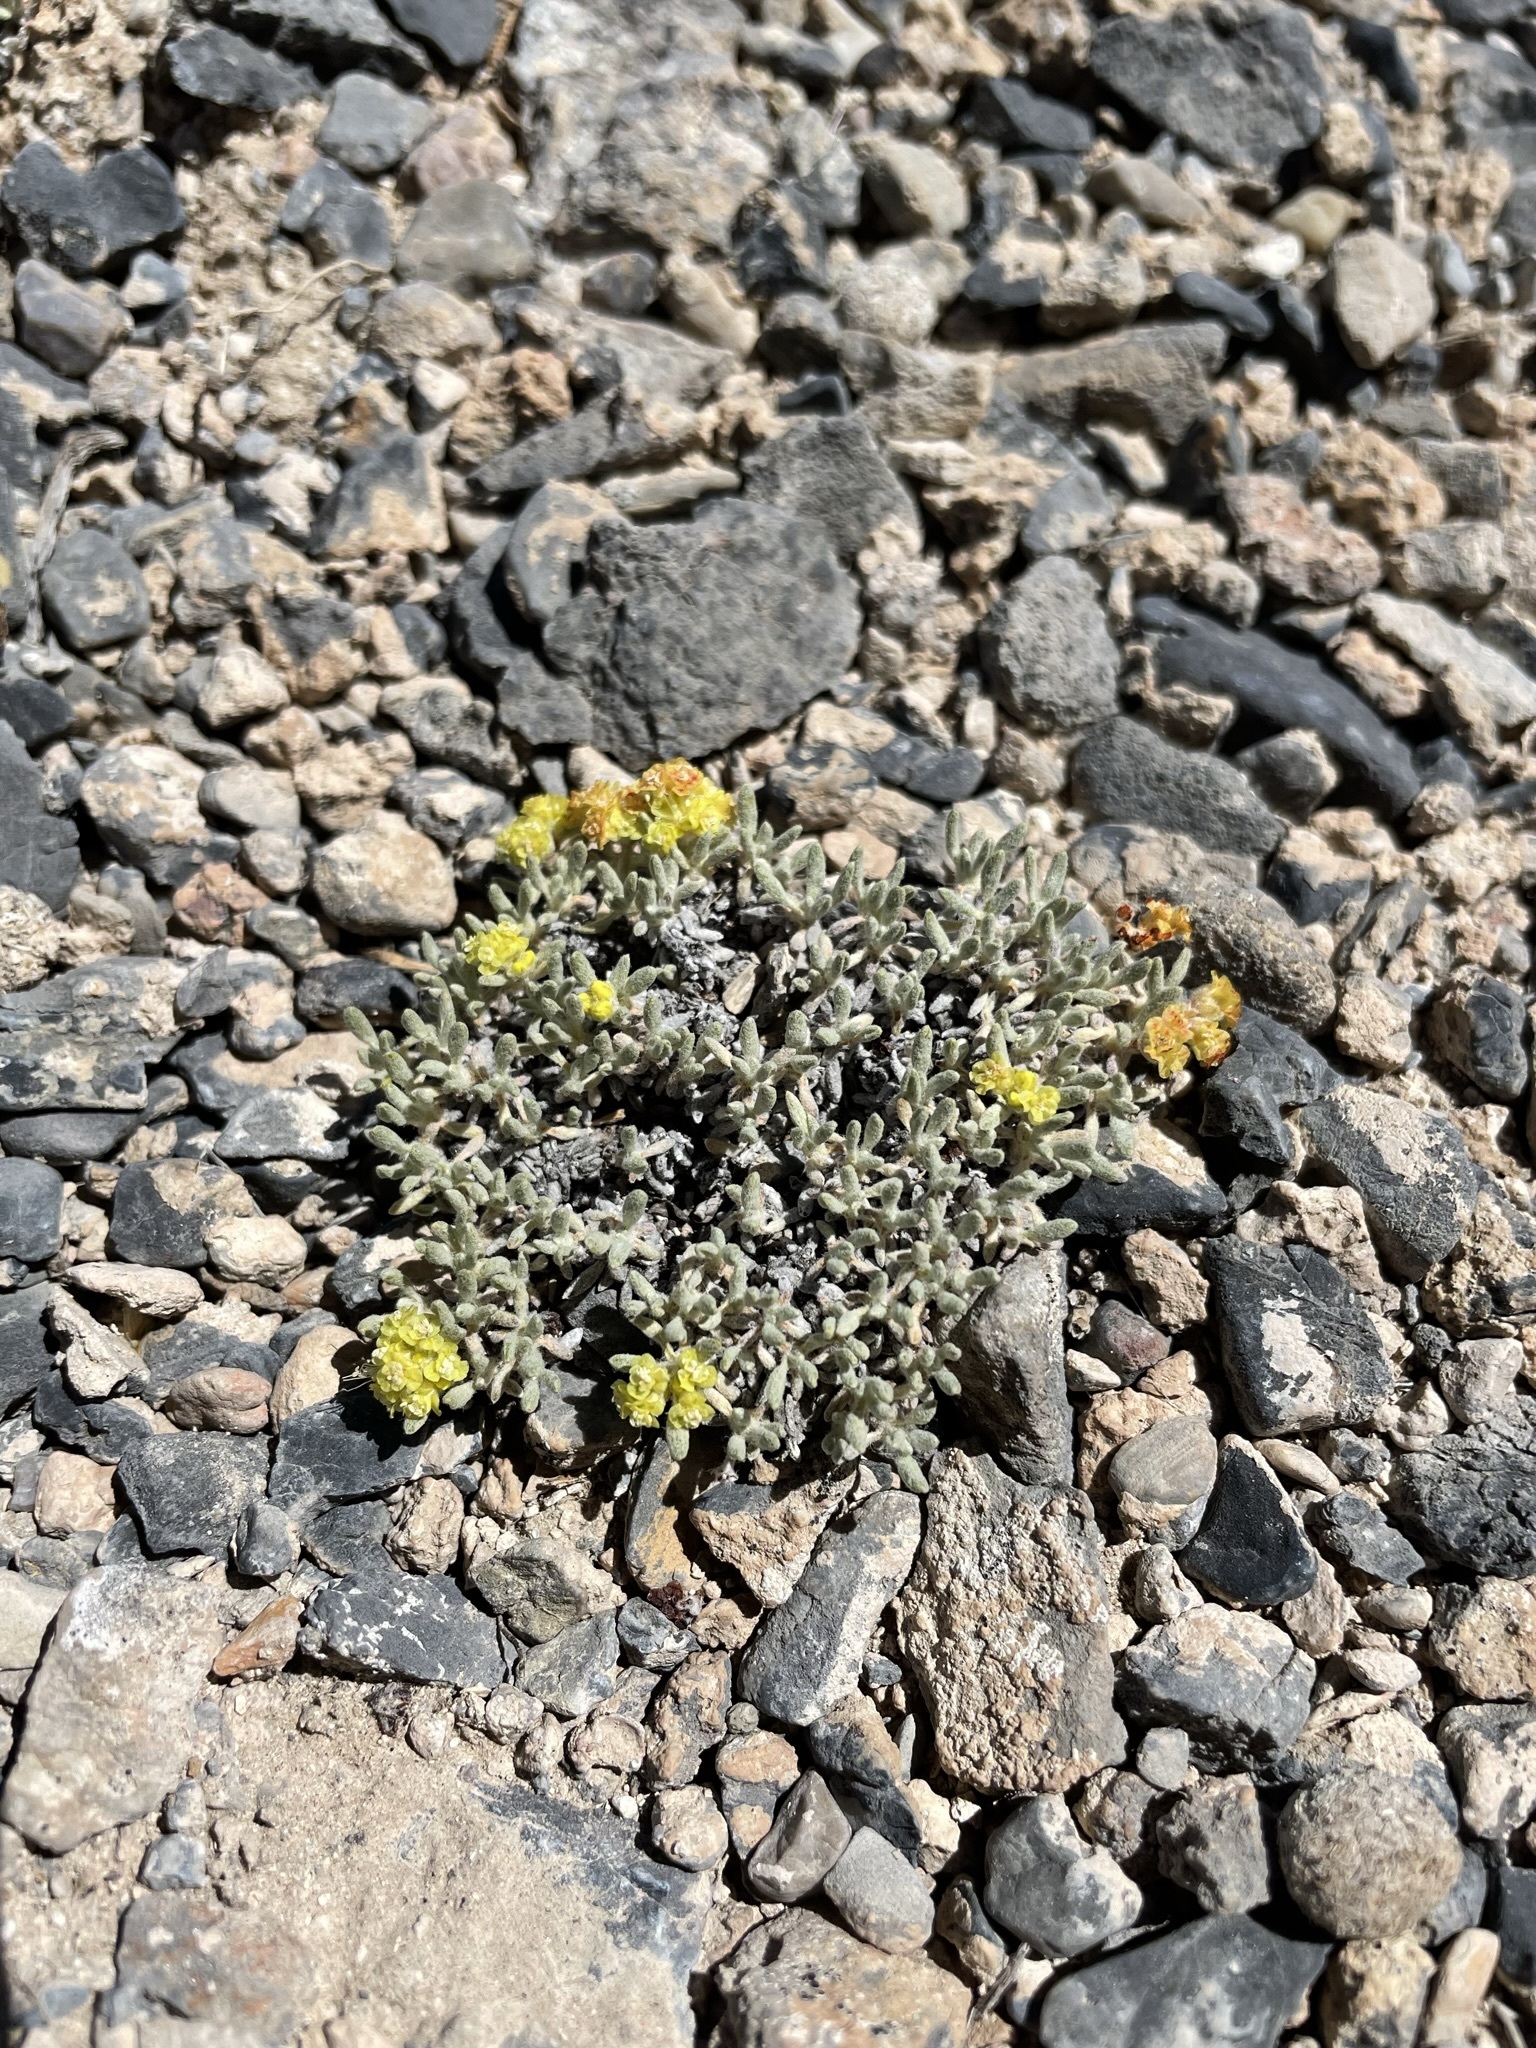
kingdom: Plantae
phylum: Tracheophyta
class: Magnoliopsida
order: Caryophyllales
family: Polygonaceae
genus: Eriogonum
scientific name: Eriogonum shockleyi
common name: Shockley's wild buckwheat
